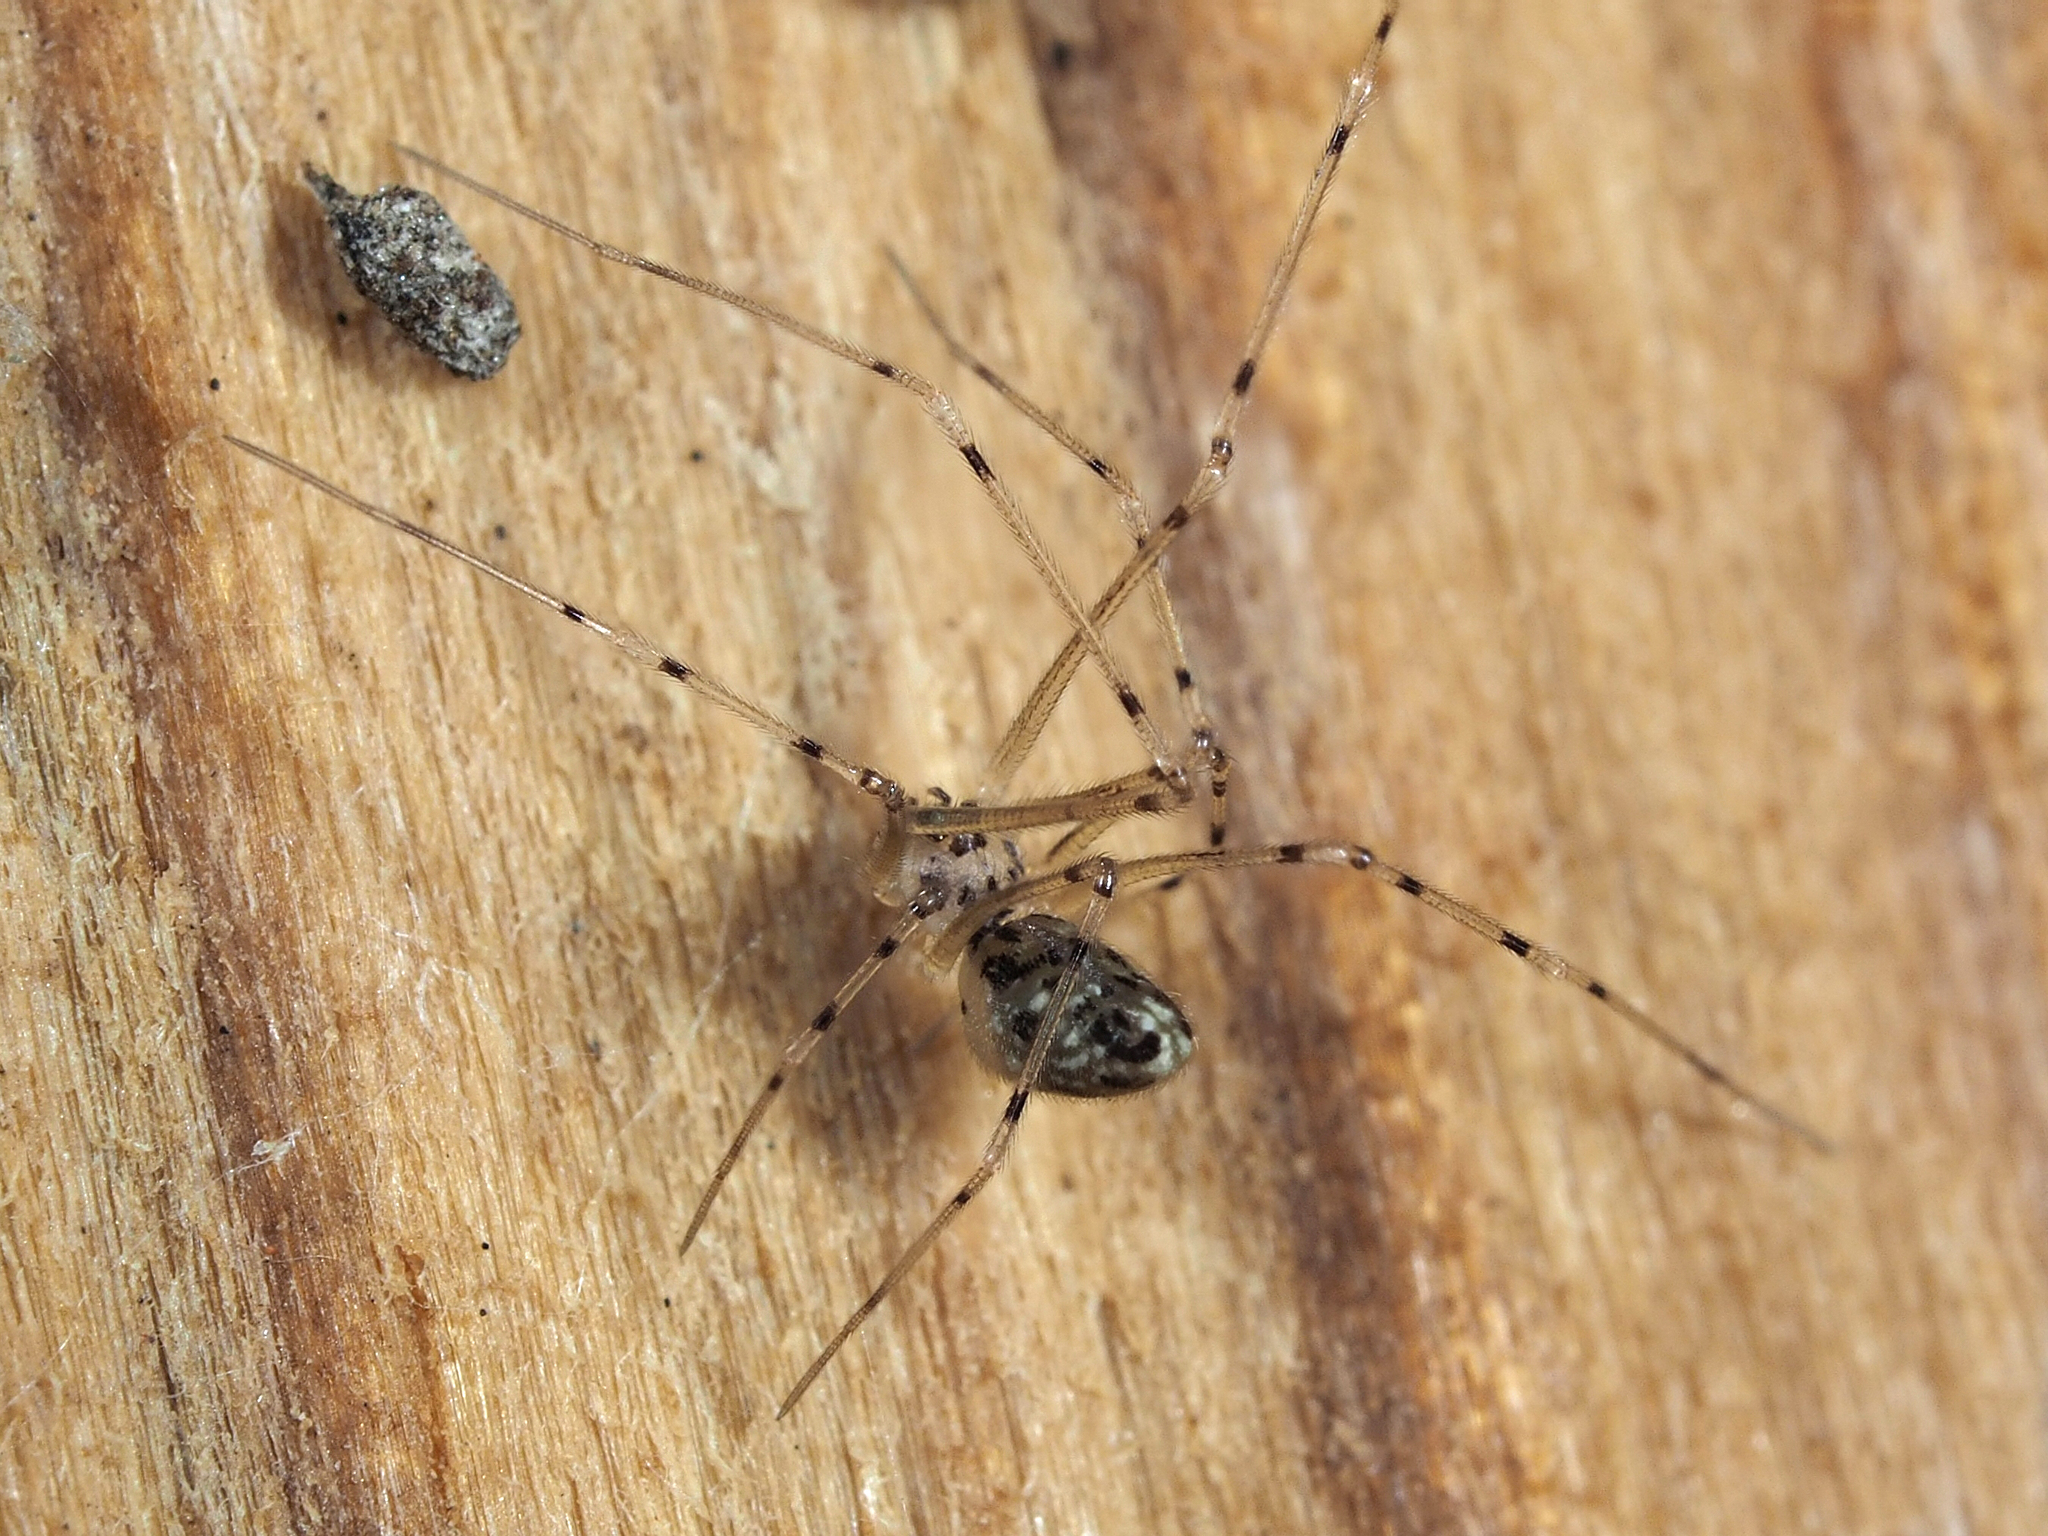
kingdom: Animalia
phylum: Arthropoda
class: Arachnida
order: Araneae
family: Pholcidae
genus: Spermophorides
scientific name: Spermophorides elevata
